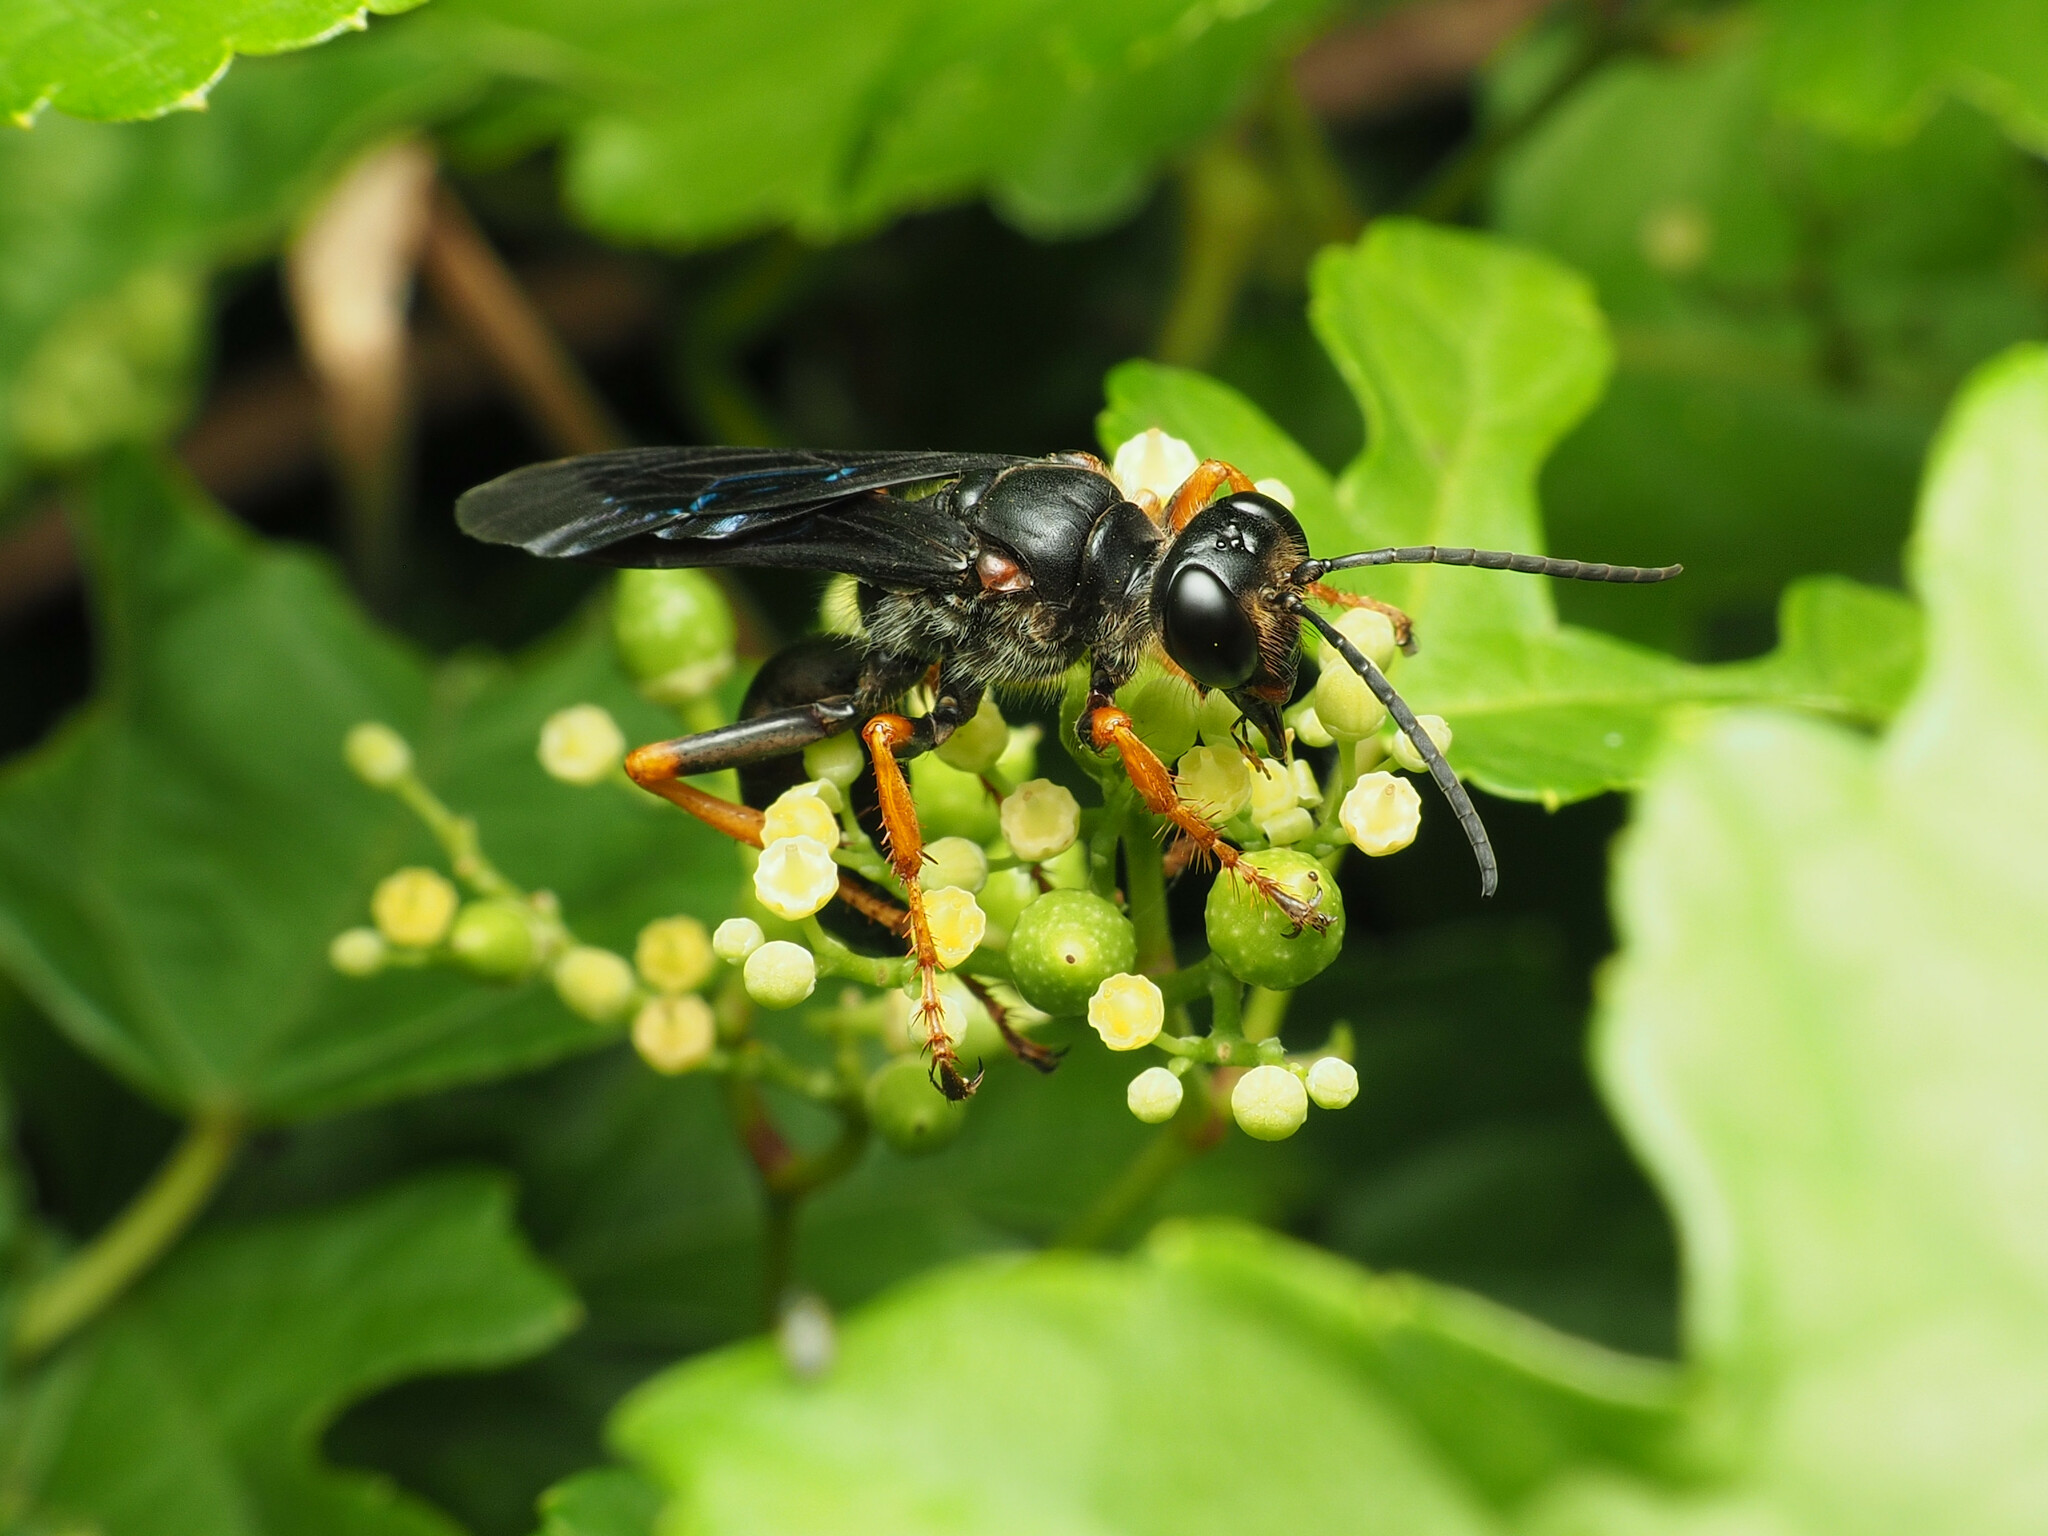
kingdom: Animalia
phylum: Arthropoda
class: Insecta
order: Hymenoptera
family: Sphecidae
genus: Sphex
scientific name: Sphex nudus
